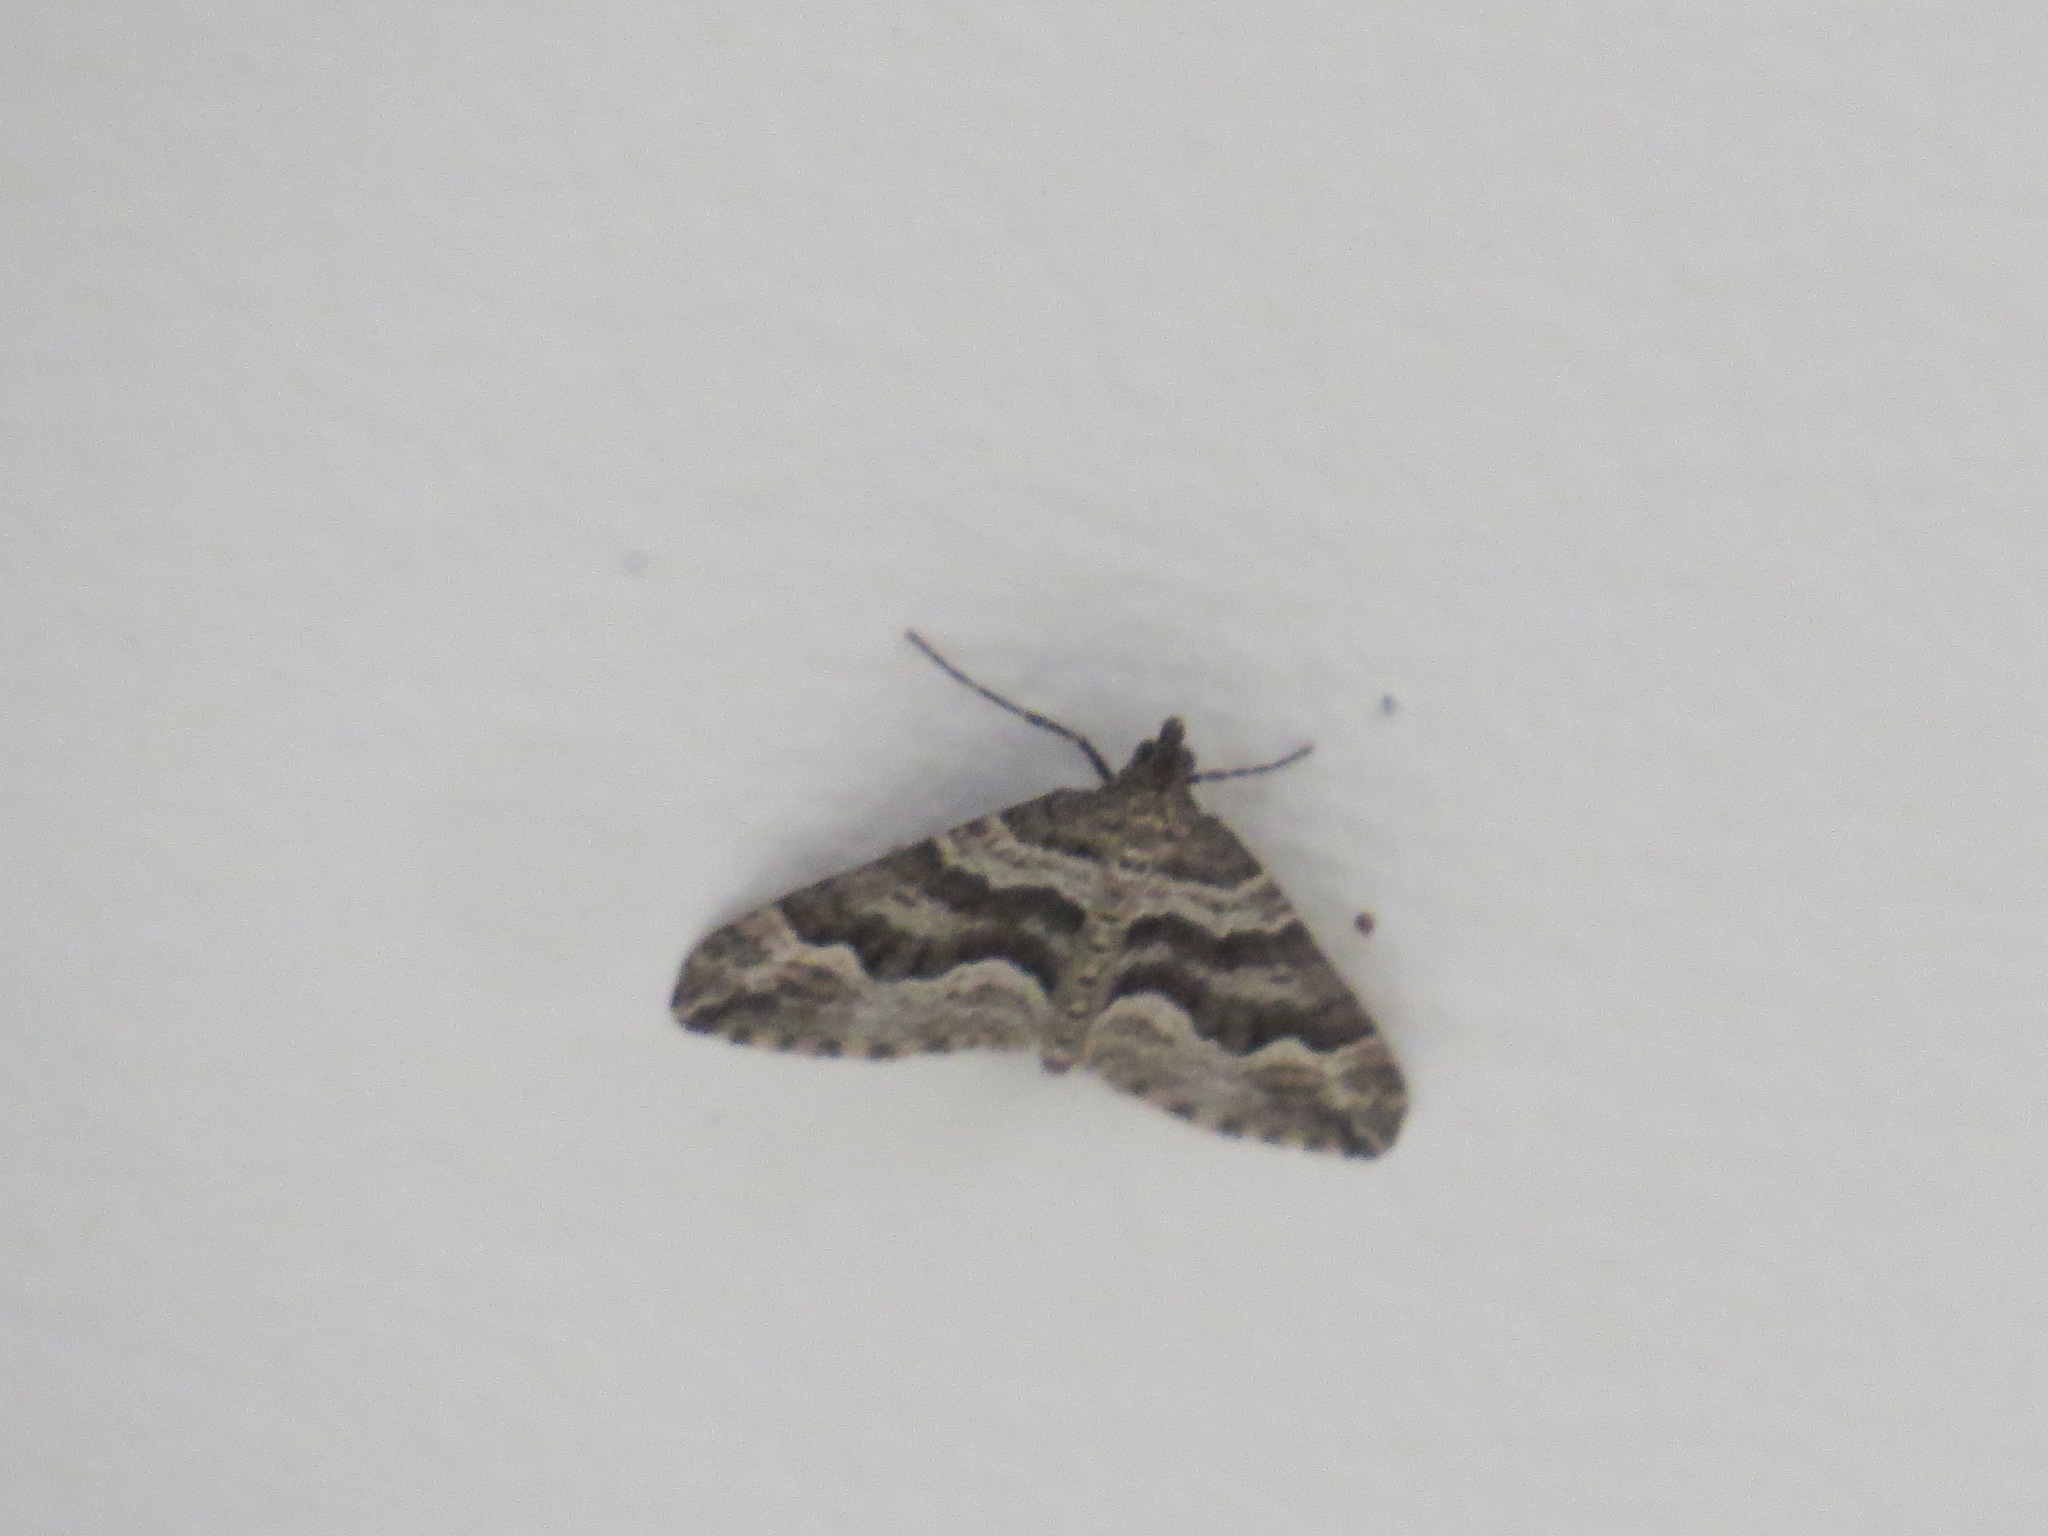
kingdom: Animalia
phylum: Arthropoda
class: Insecta
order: Lepidoptera
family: Geometridae
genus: Perizoma
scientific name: Perizoma epictata
